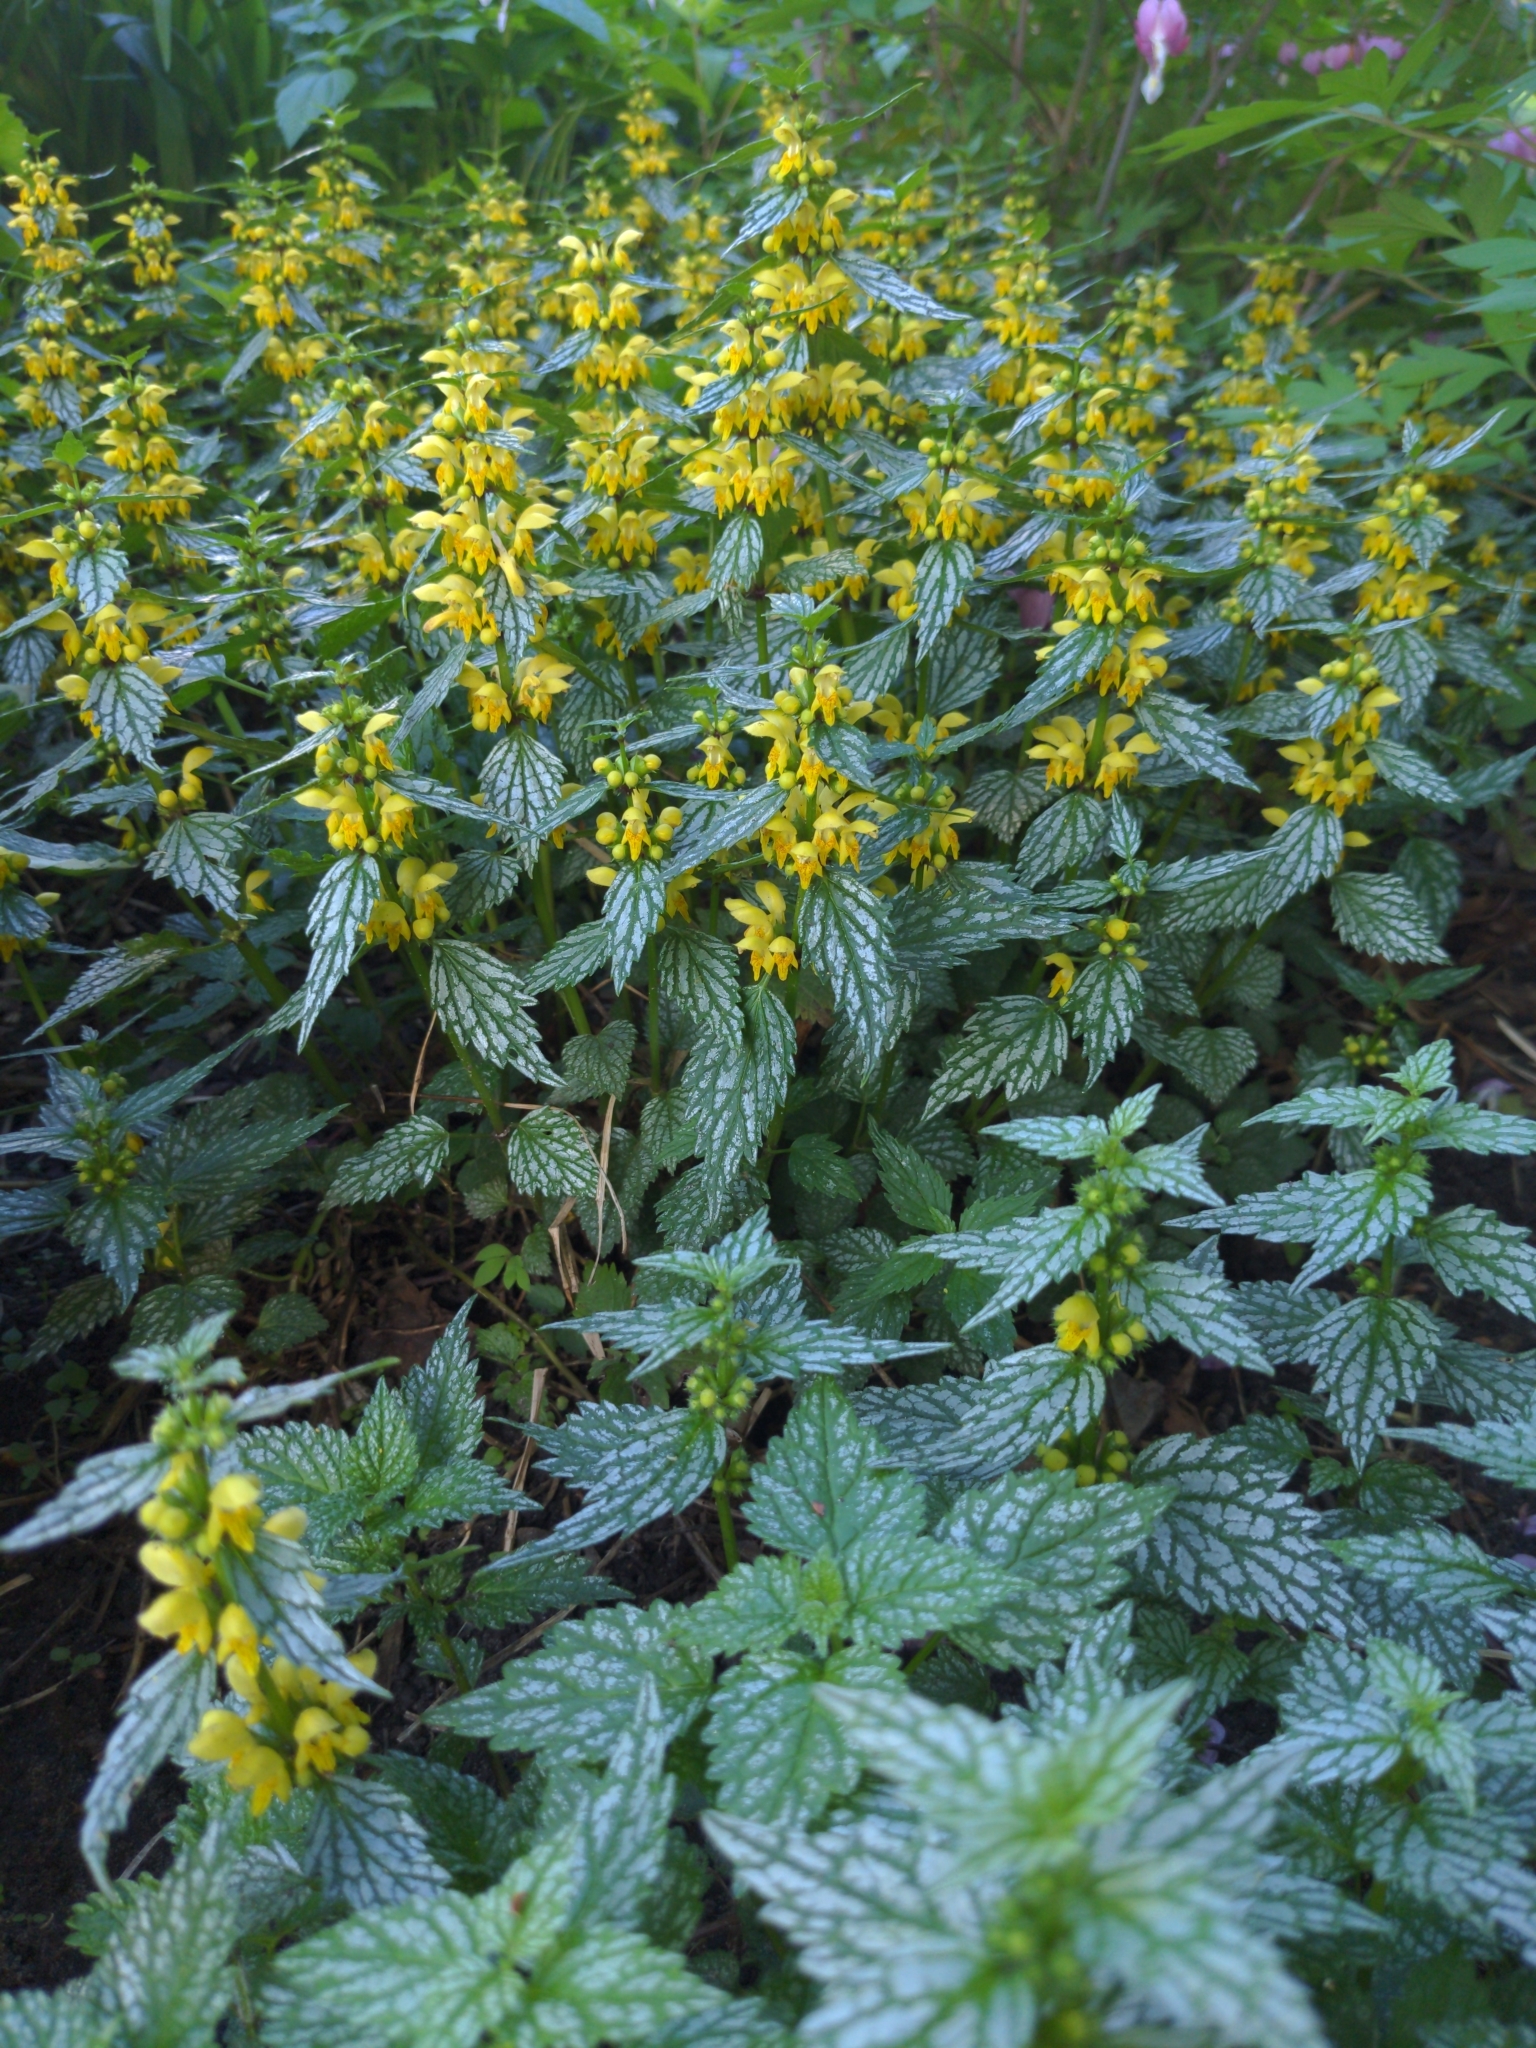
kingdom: Plantae
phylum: Tracheophyta
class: Magnoliopsida
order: Lamiales
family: Lamiaceae
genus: Lamium
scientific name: Lamium galeobdolon
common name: Yellow archangel
